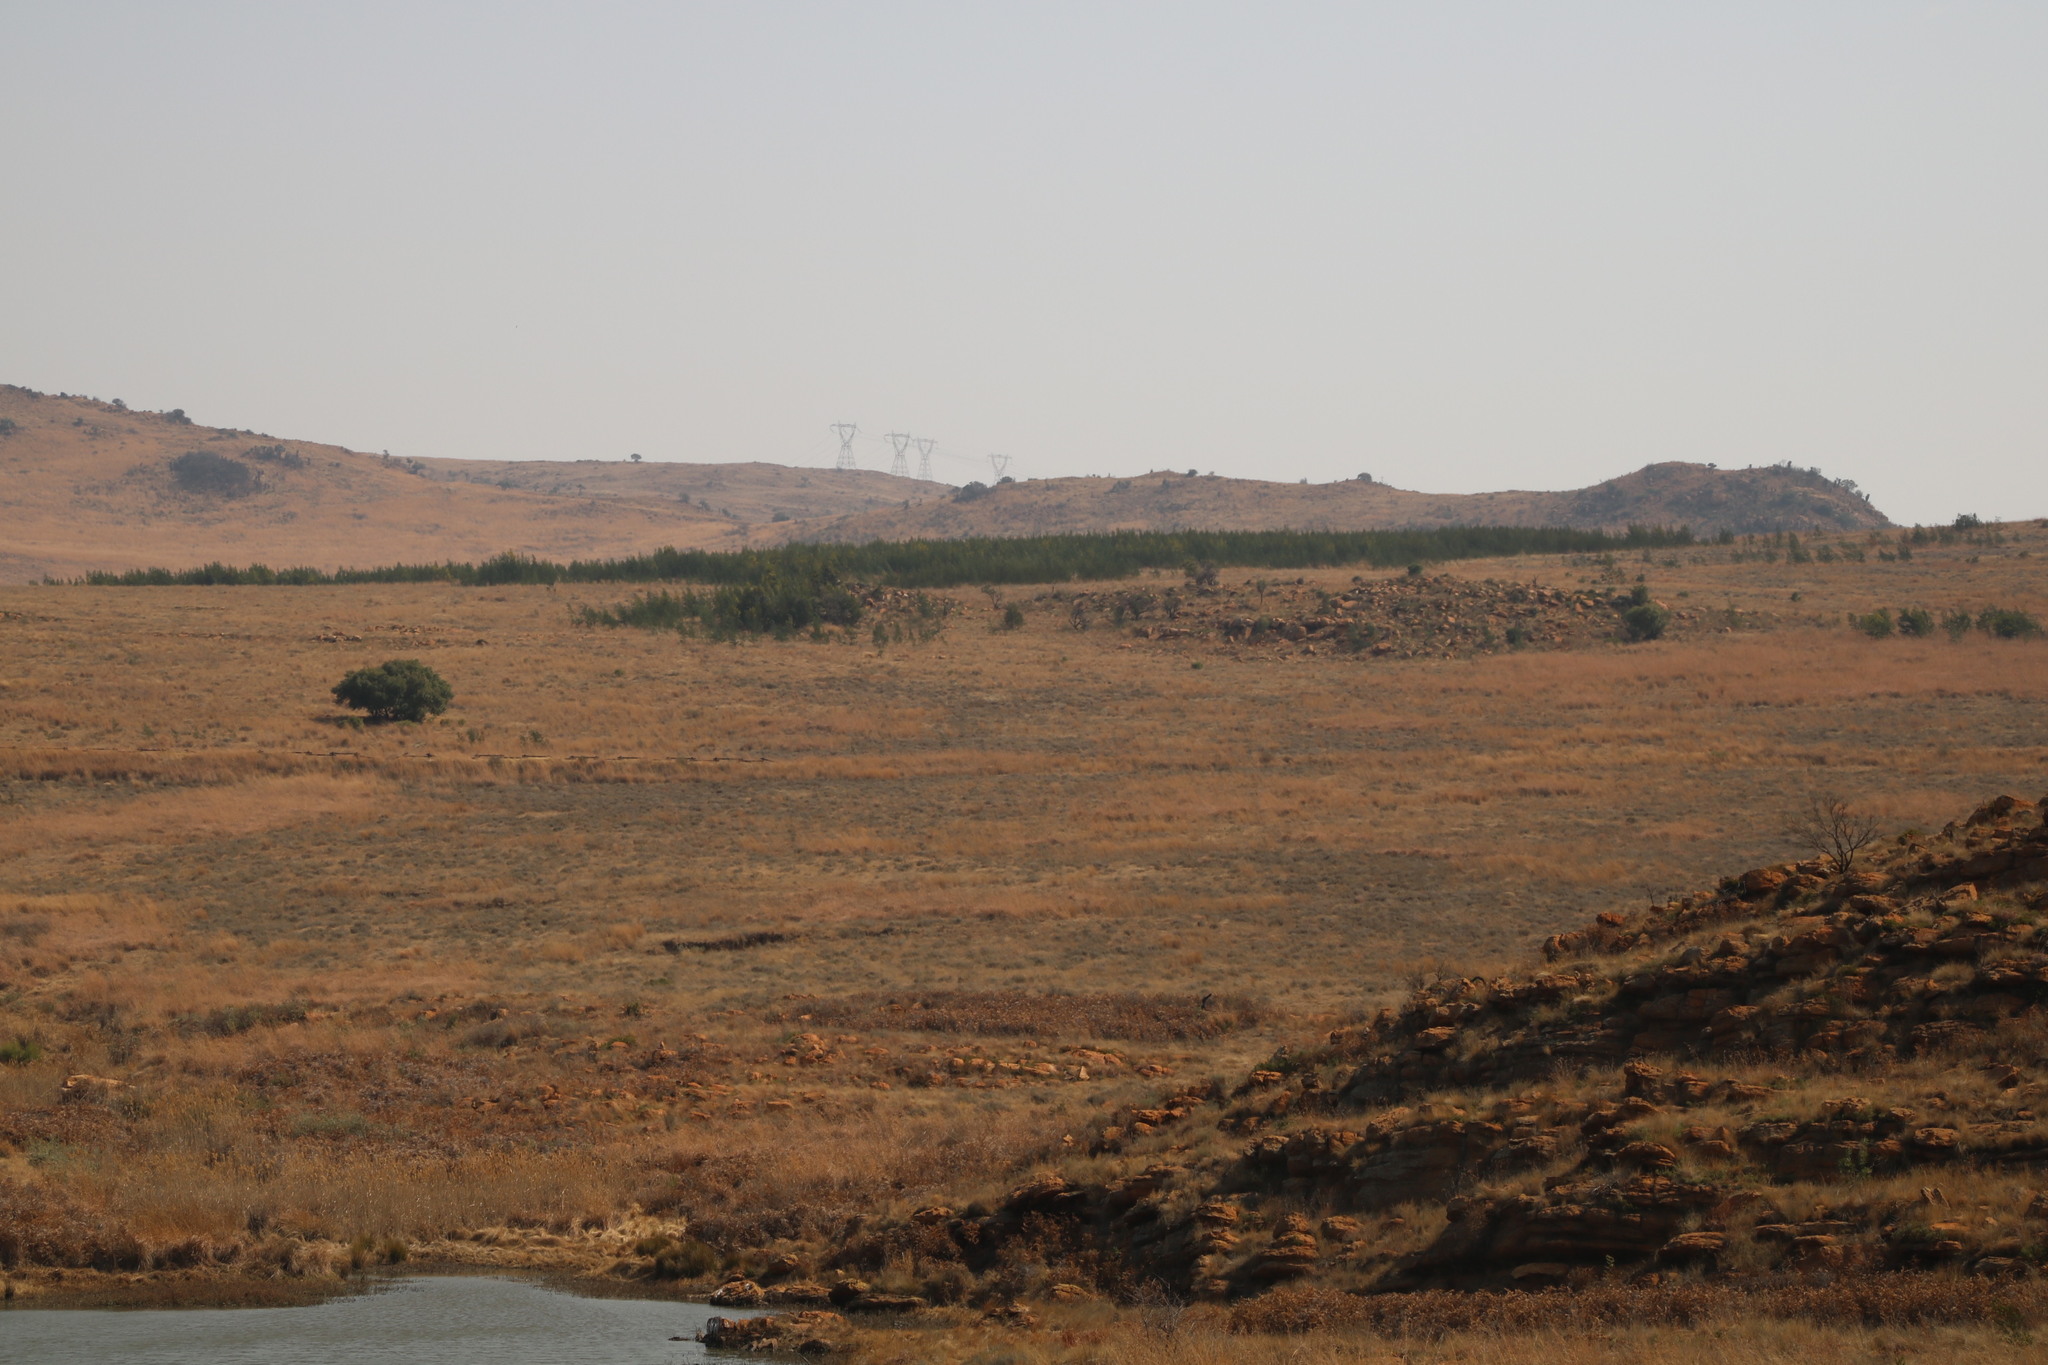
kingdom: Plantae
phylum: Tracheophyta
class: Magnoliopsida
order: Fabales
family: Fabaceae
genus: Acacia
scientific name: Acacia mearnsii
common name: Black wattle
